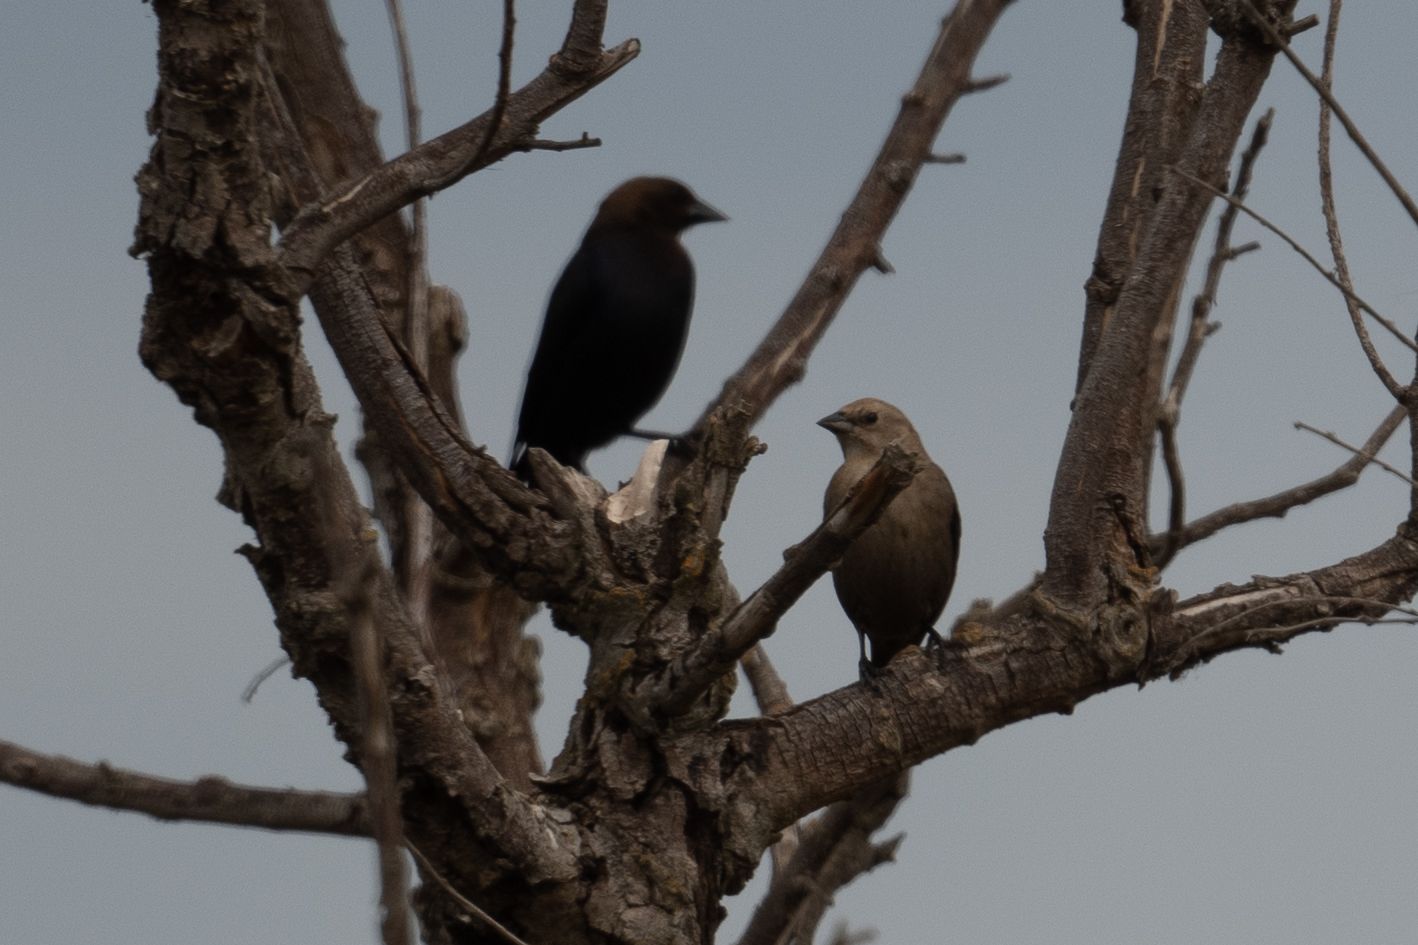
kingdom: Animalia
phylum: Chordata
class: Aves
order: Passeriformes
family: Icteridae
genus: Molothrus
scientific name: Molothrus ater
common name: Brown-headed cowbird
